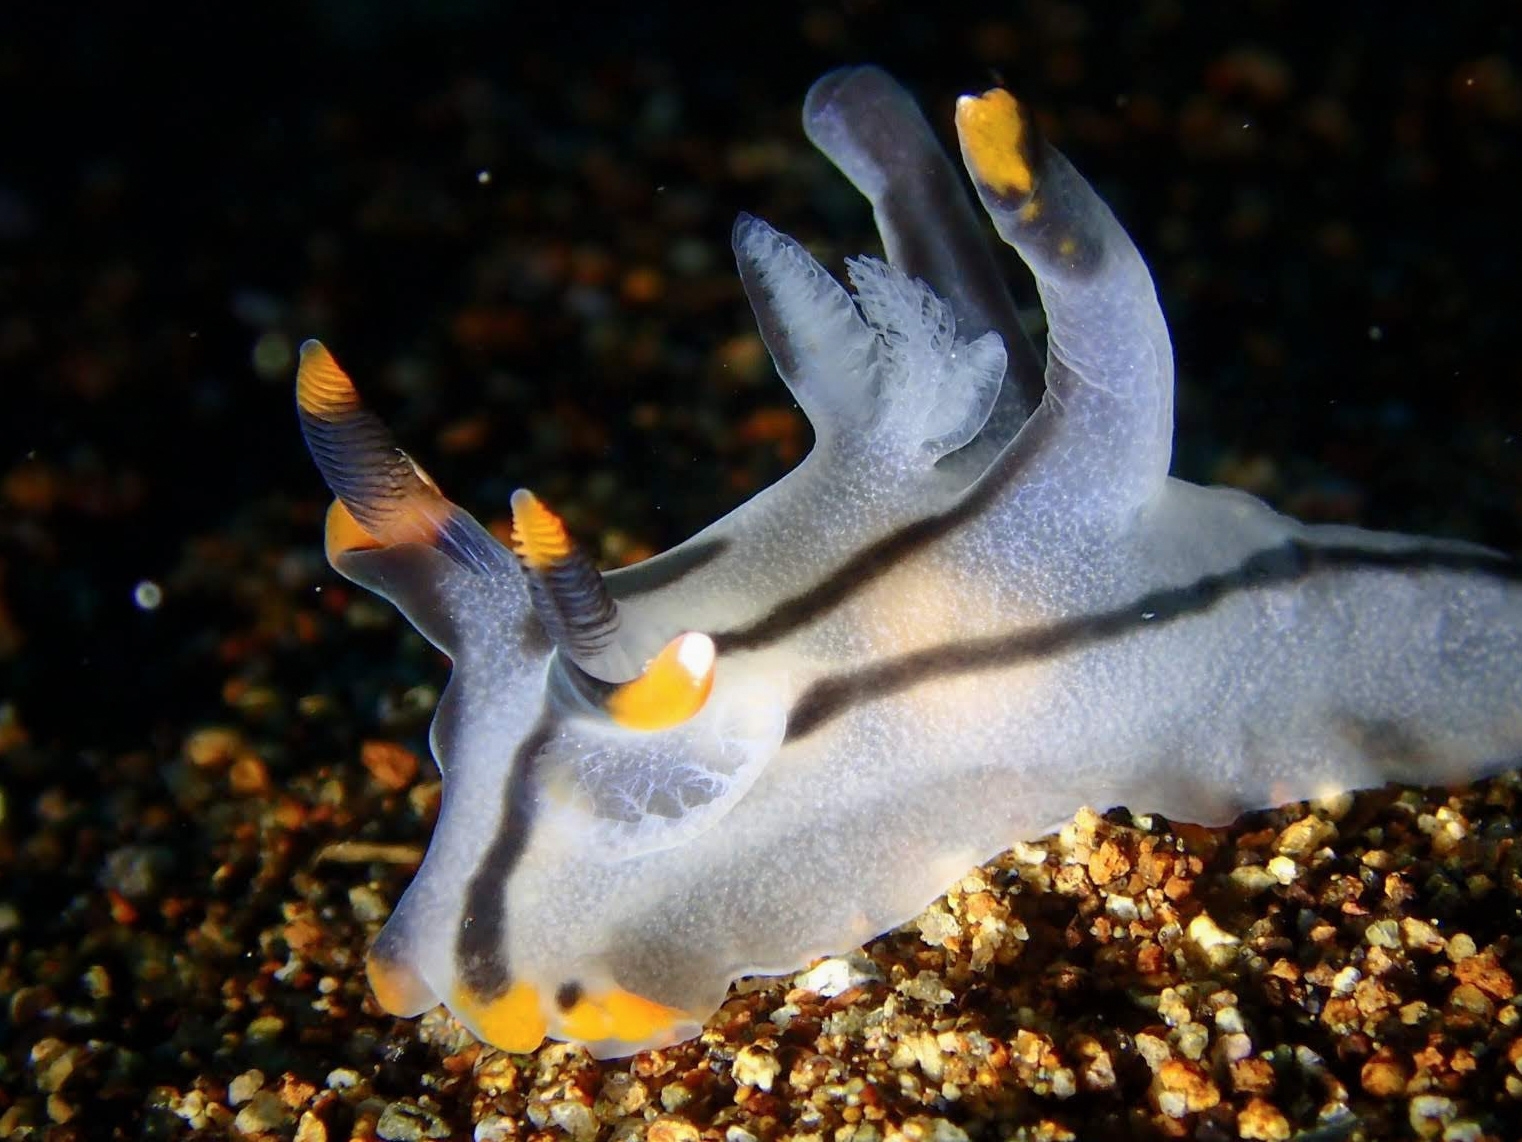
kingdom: Animalia
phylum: Mollusca
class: Gastropoda
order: Nudibranchia
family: Polyceridae
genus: Thecacera
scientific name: Thecacera picta
